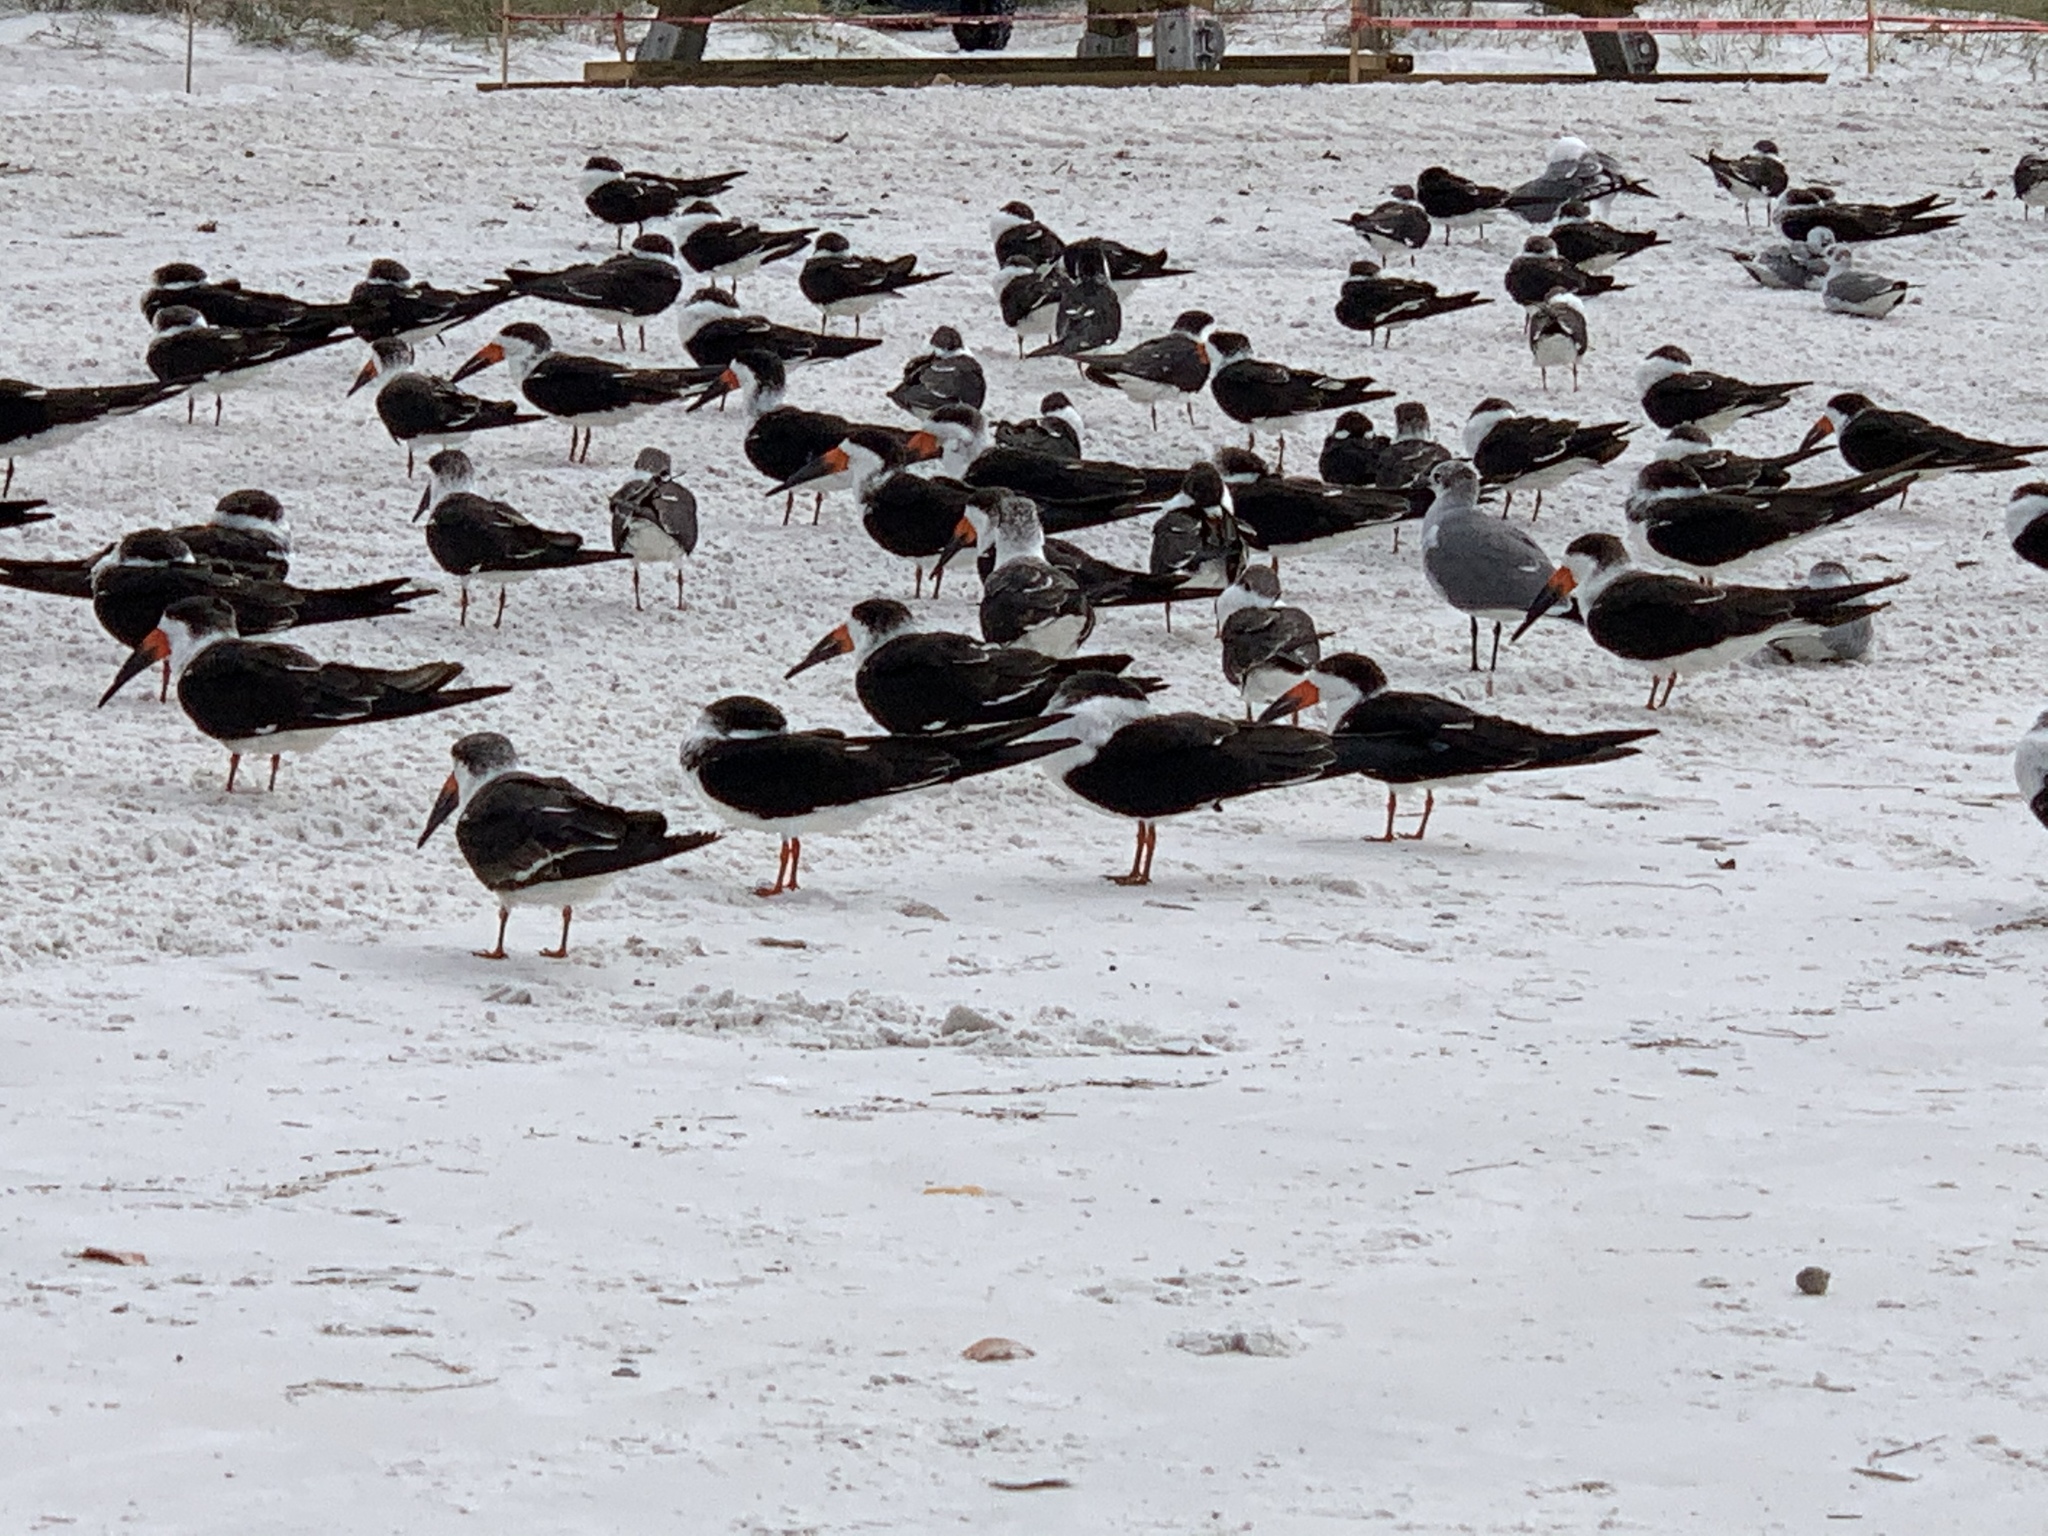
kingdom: Animalia
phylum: Chordata
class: Aves
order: Charadriiformes
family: Laridae
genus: Rynchops
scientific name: Rynchops niger
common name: Black skimmer
